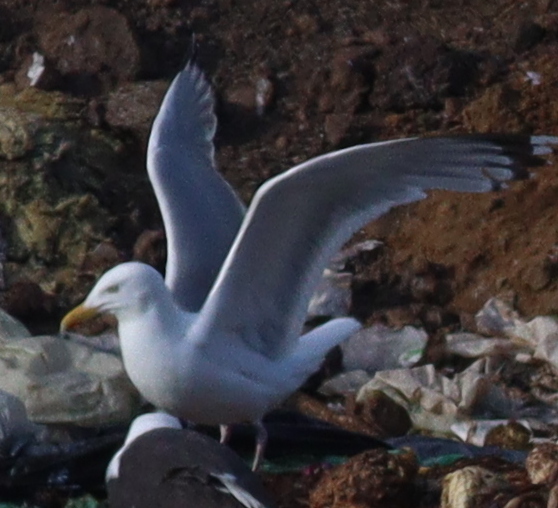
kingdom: Animalia
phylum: Chordata
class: Aves
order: Charadriiformes
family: Laridae
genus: Larus
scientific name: Larus argentatus
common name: Herring gull
